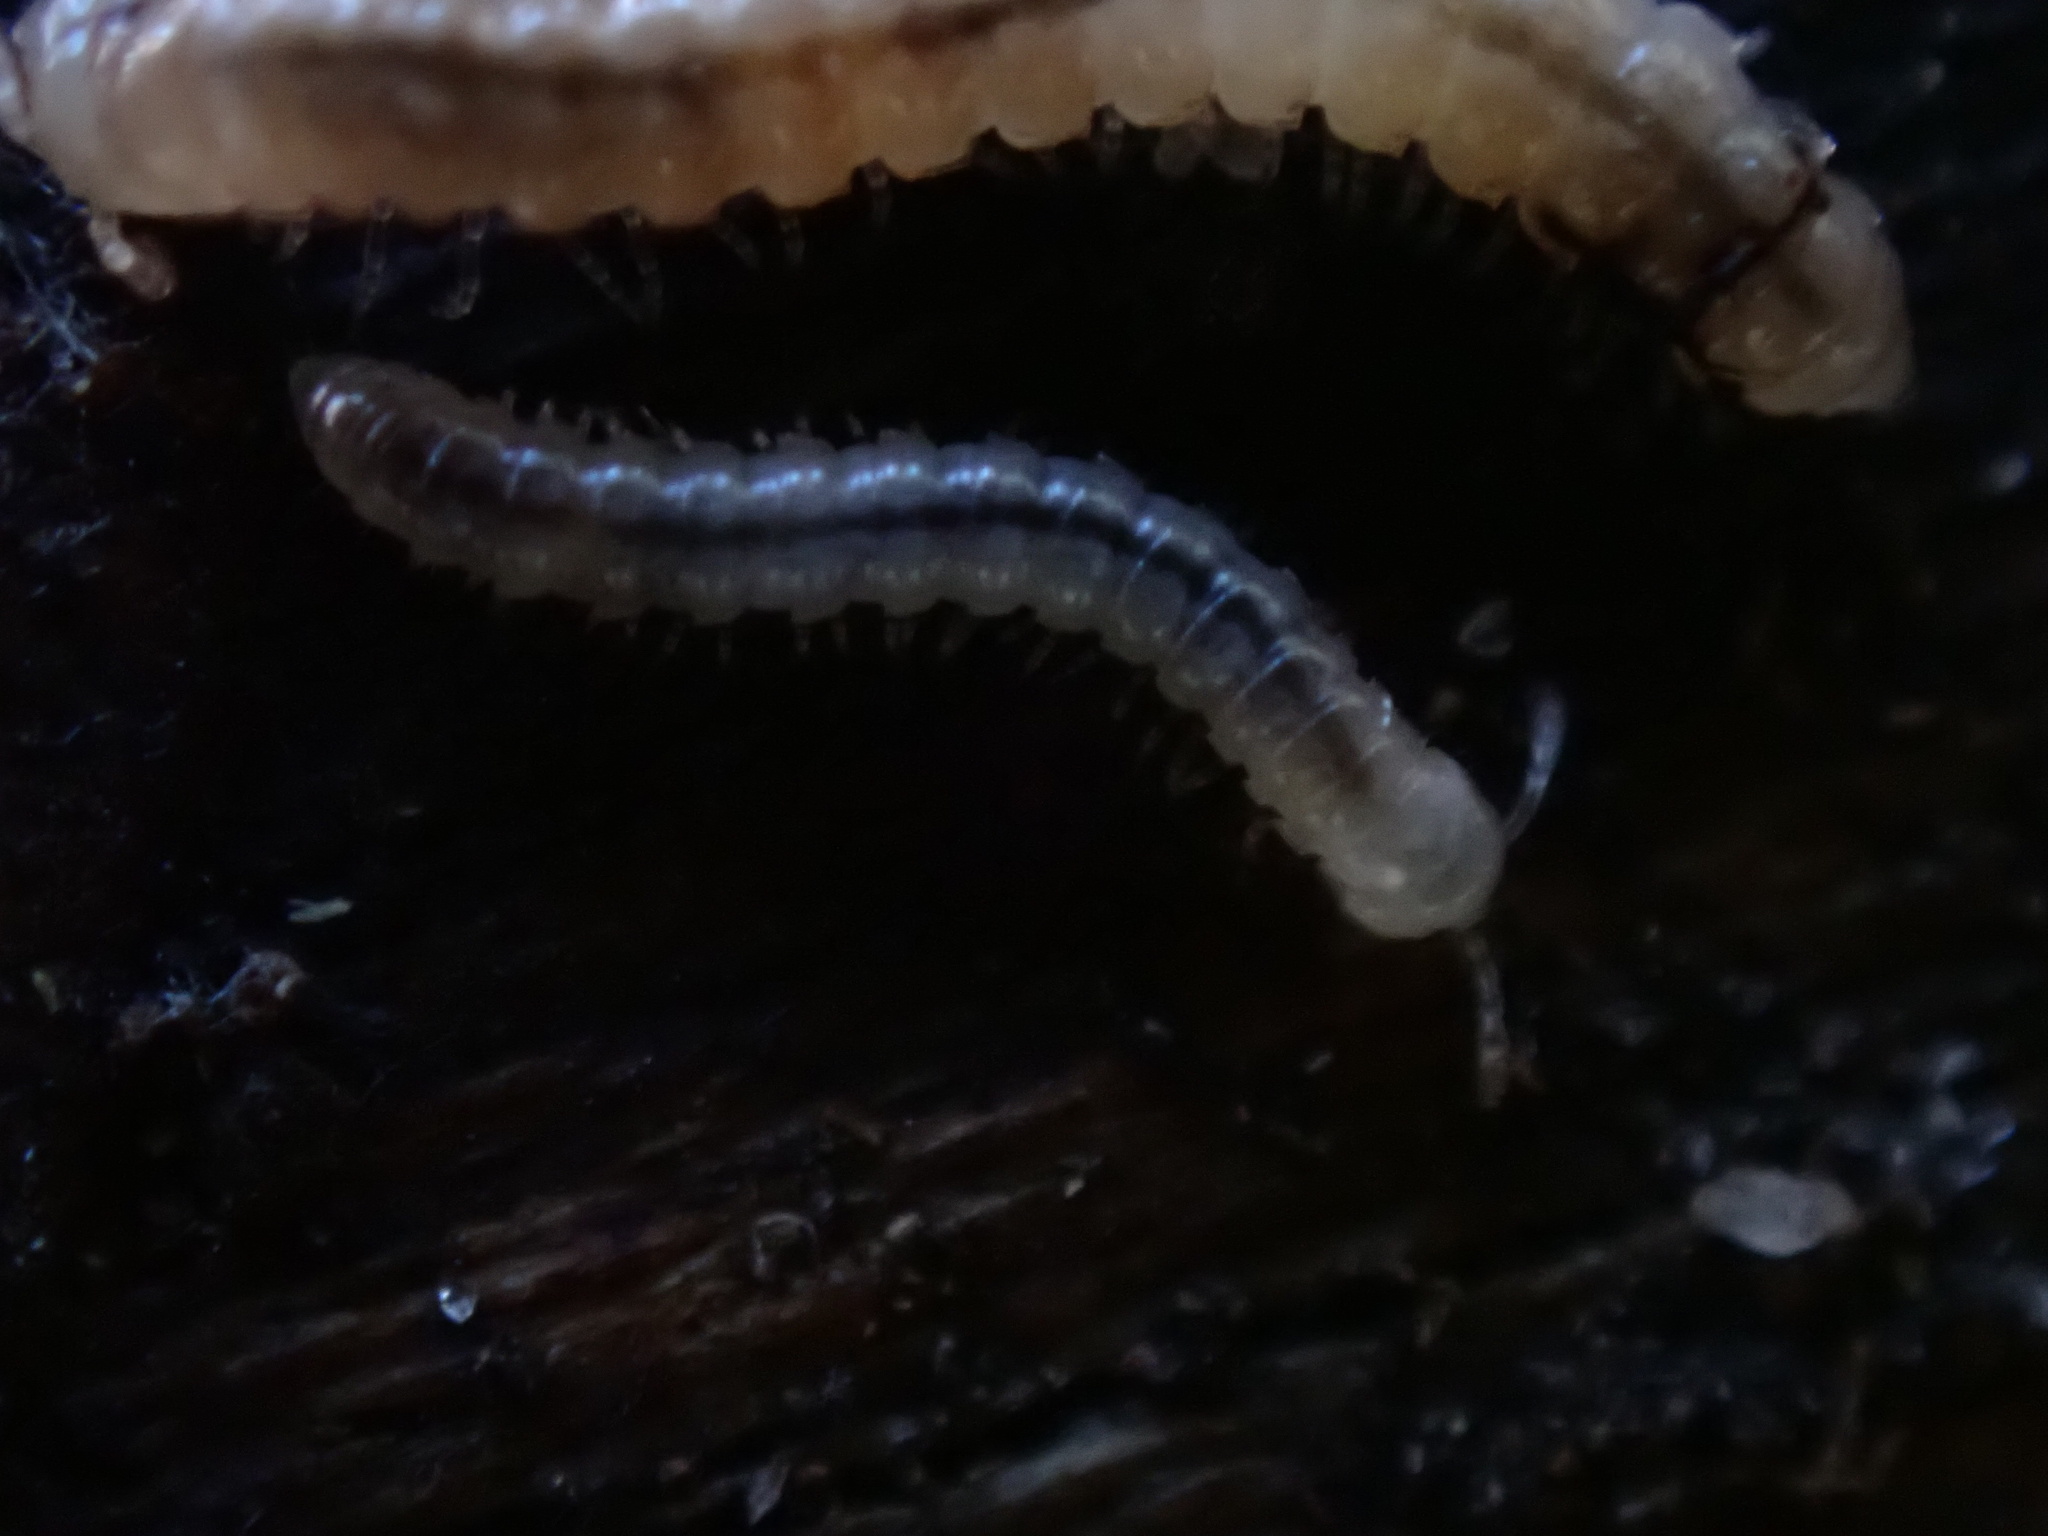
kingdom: Animalia
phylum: Arthropoda
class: Diplopoda
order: Polydesmida
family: Paradoxosomatidae
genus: Oxidus
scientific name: Oxidus gracilis
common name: Greenhouse millipede
